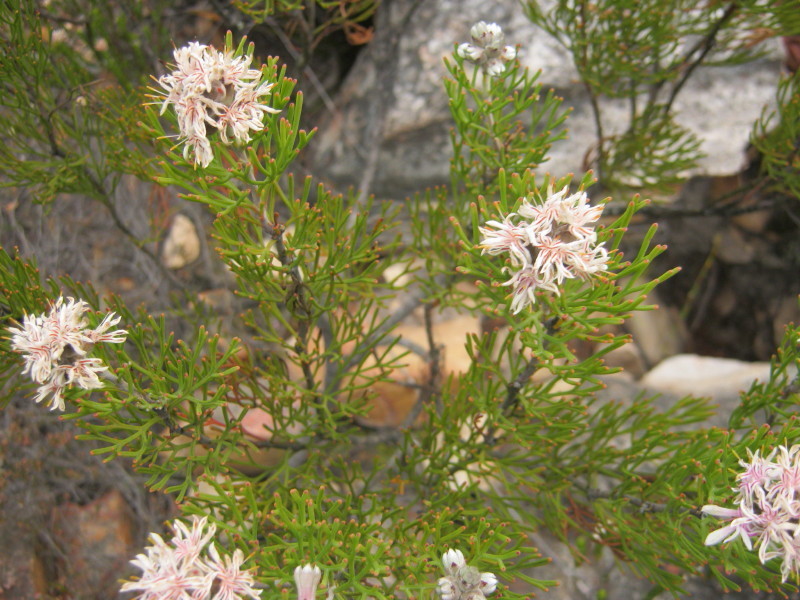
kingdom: Plantae
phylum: Tracheophyta
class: Magnoliopsida
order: Proteales
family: Proteaceae
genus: Paranomus
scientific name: Paranomus dregei
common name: Scented sceptre
